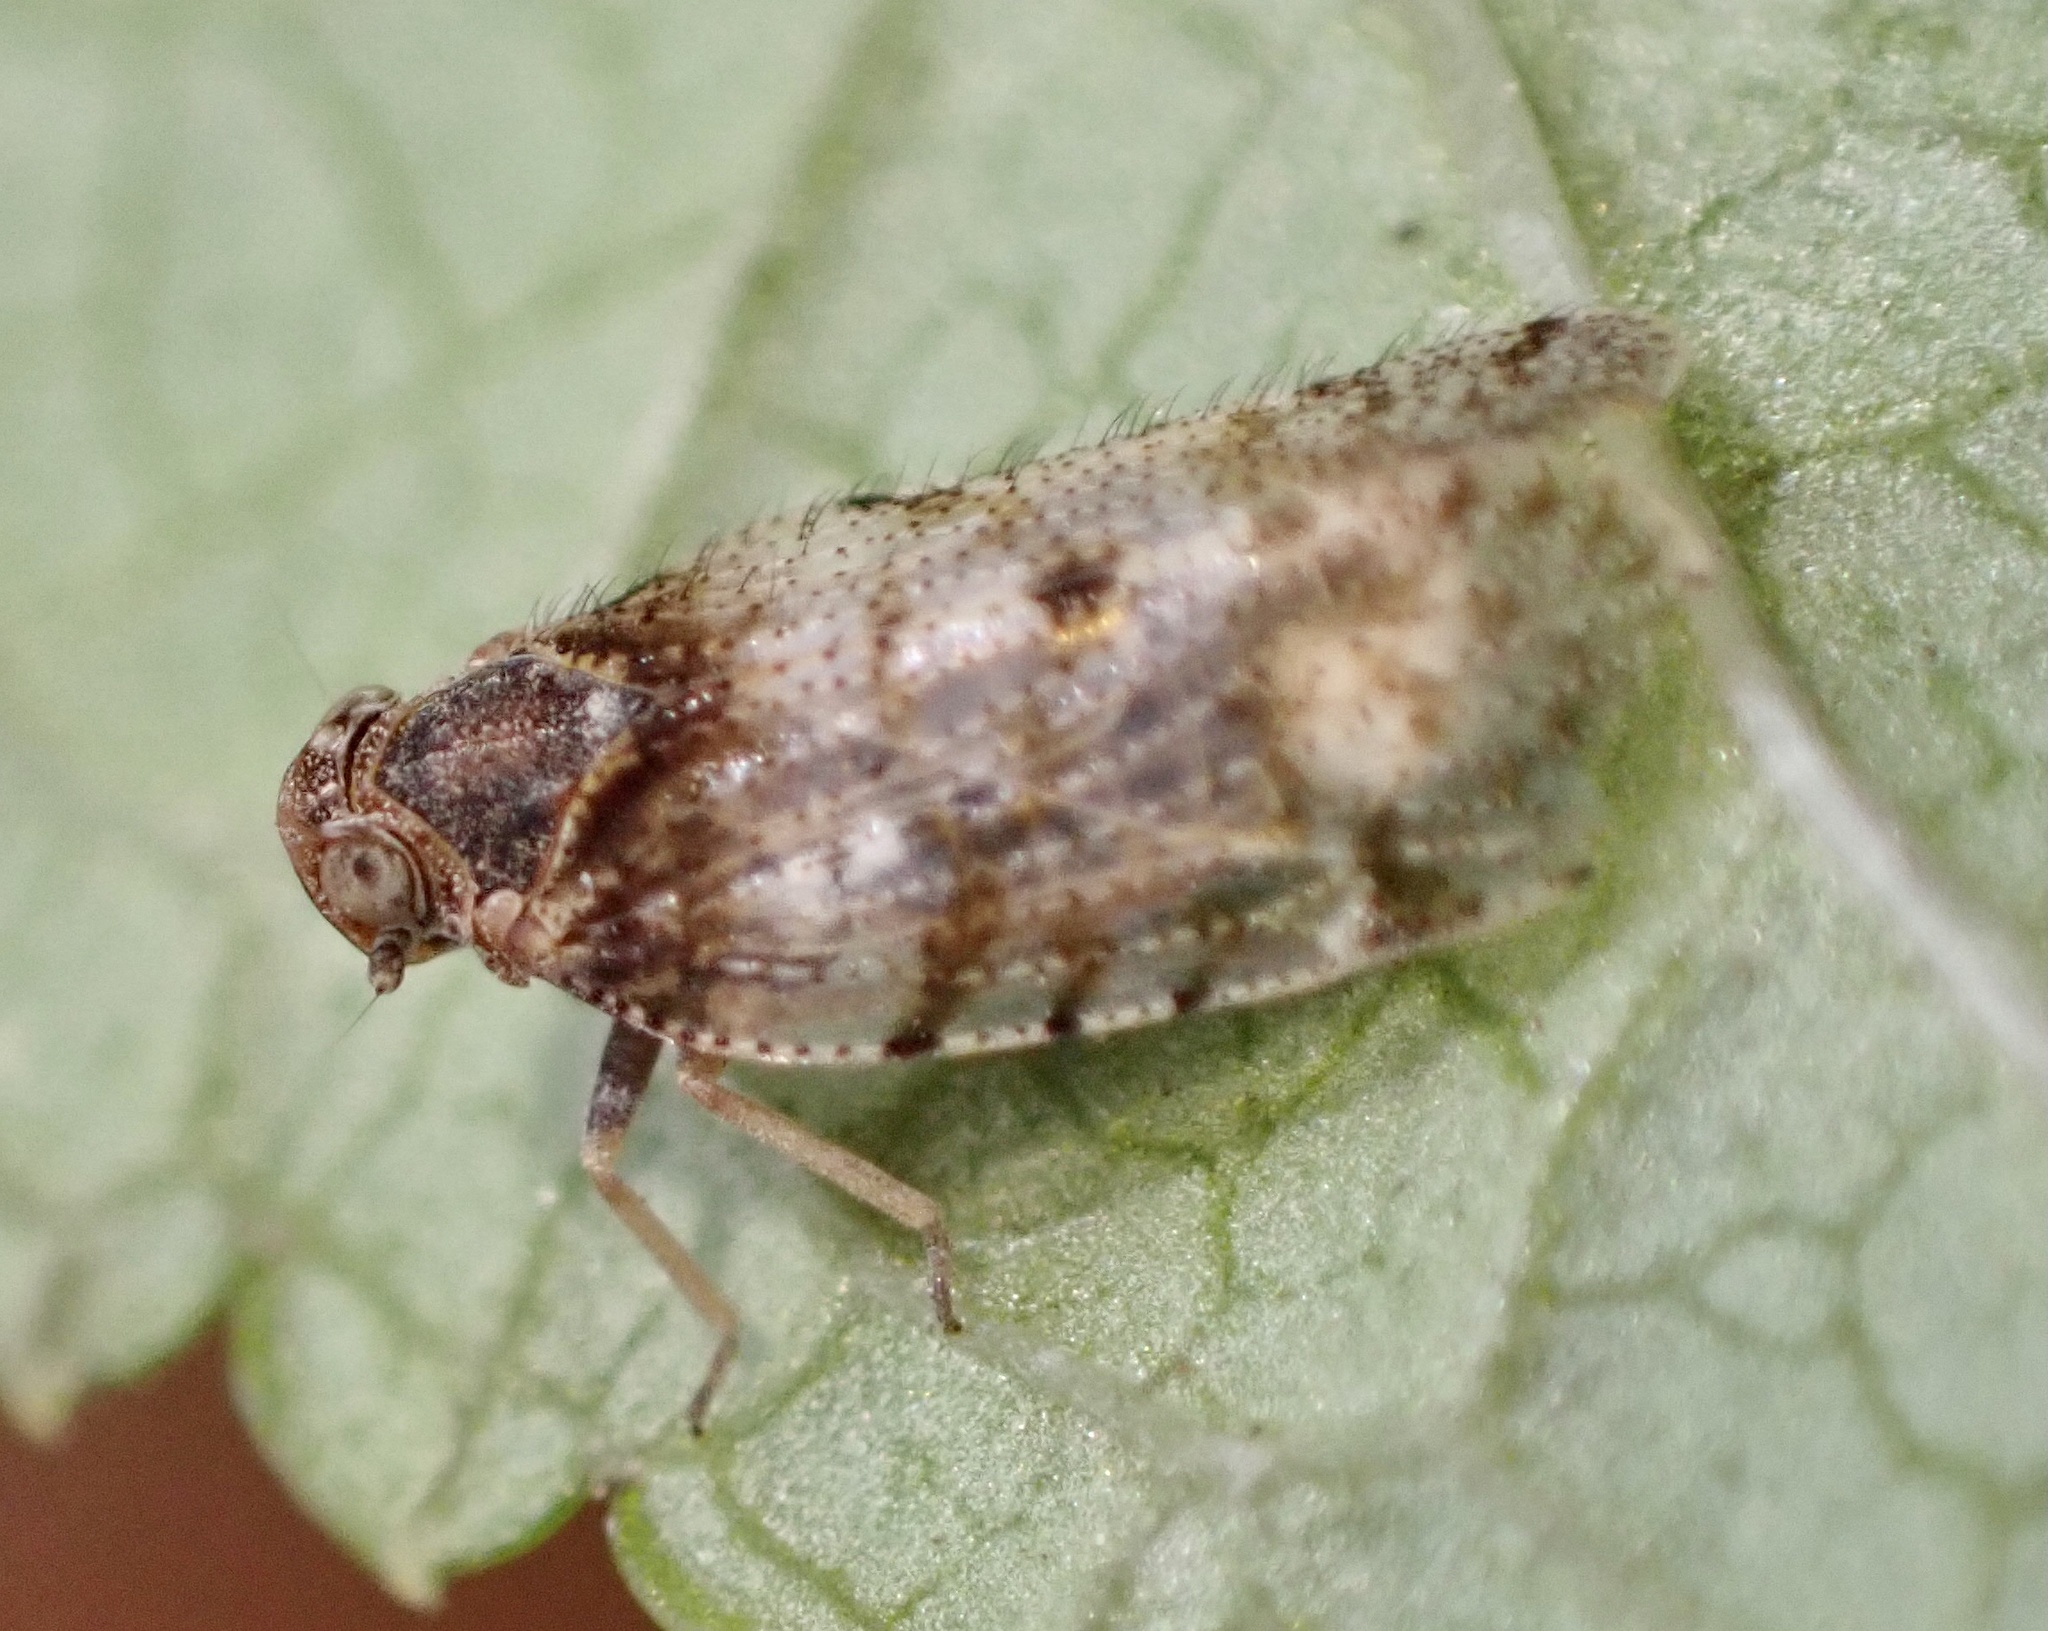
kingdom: Animalia
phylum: Arthropoda
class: Insecta
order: Hemiptera
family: Cixiidae
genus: Tachycixius
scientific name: Tachycixius pilosus
